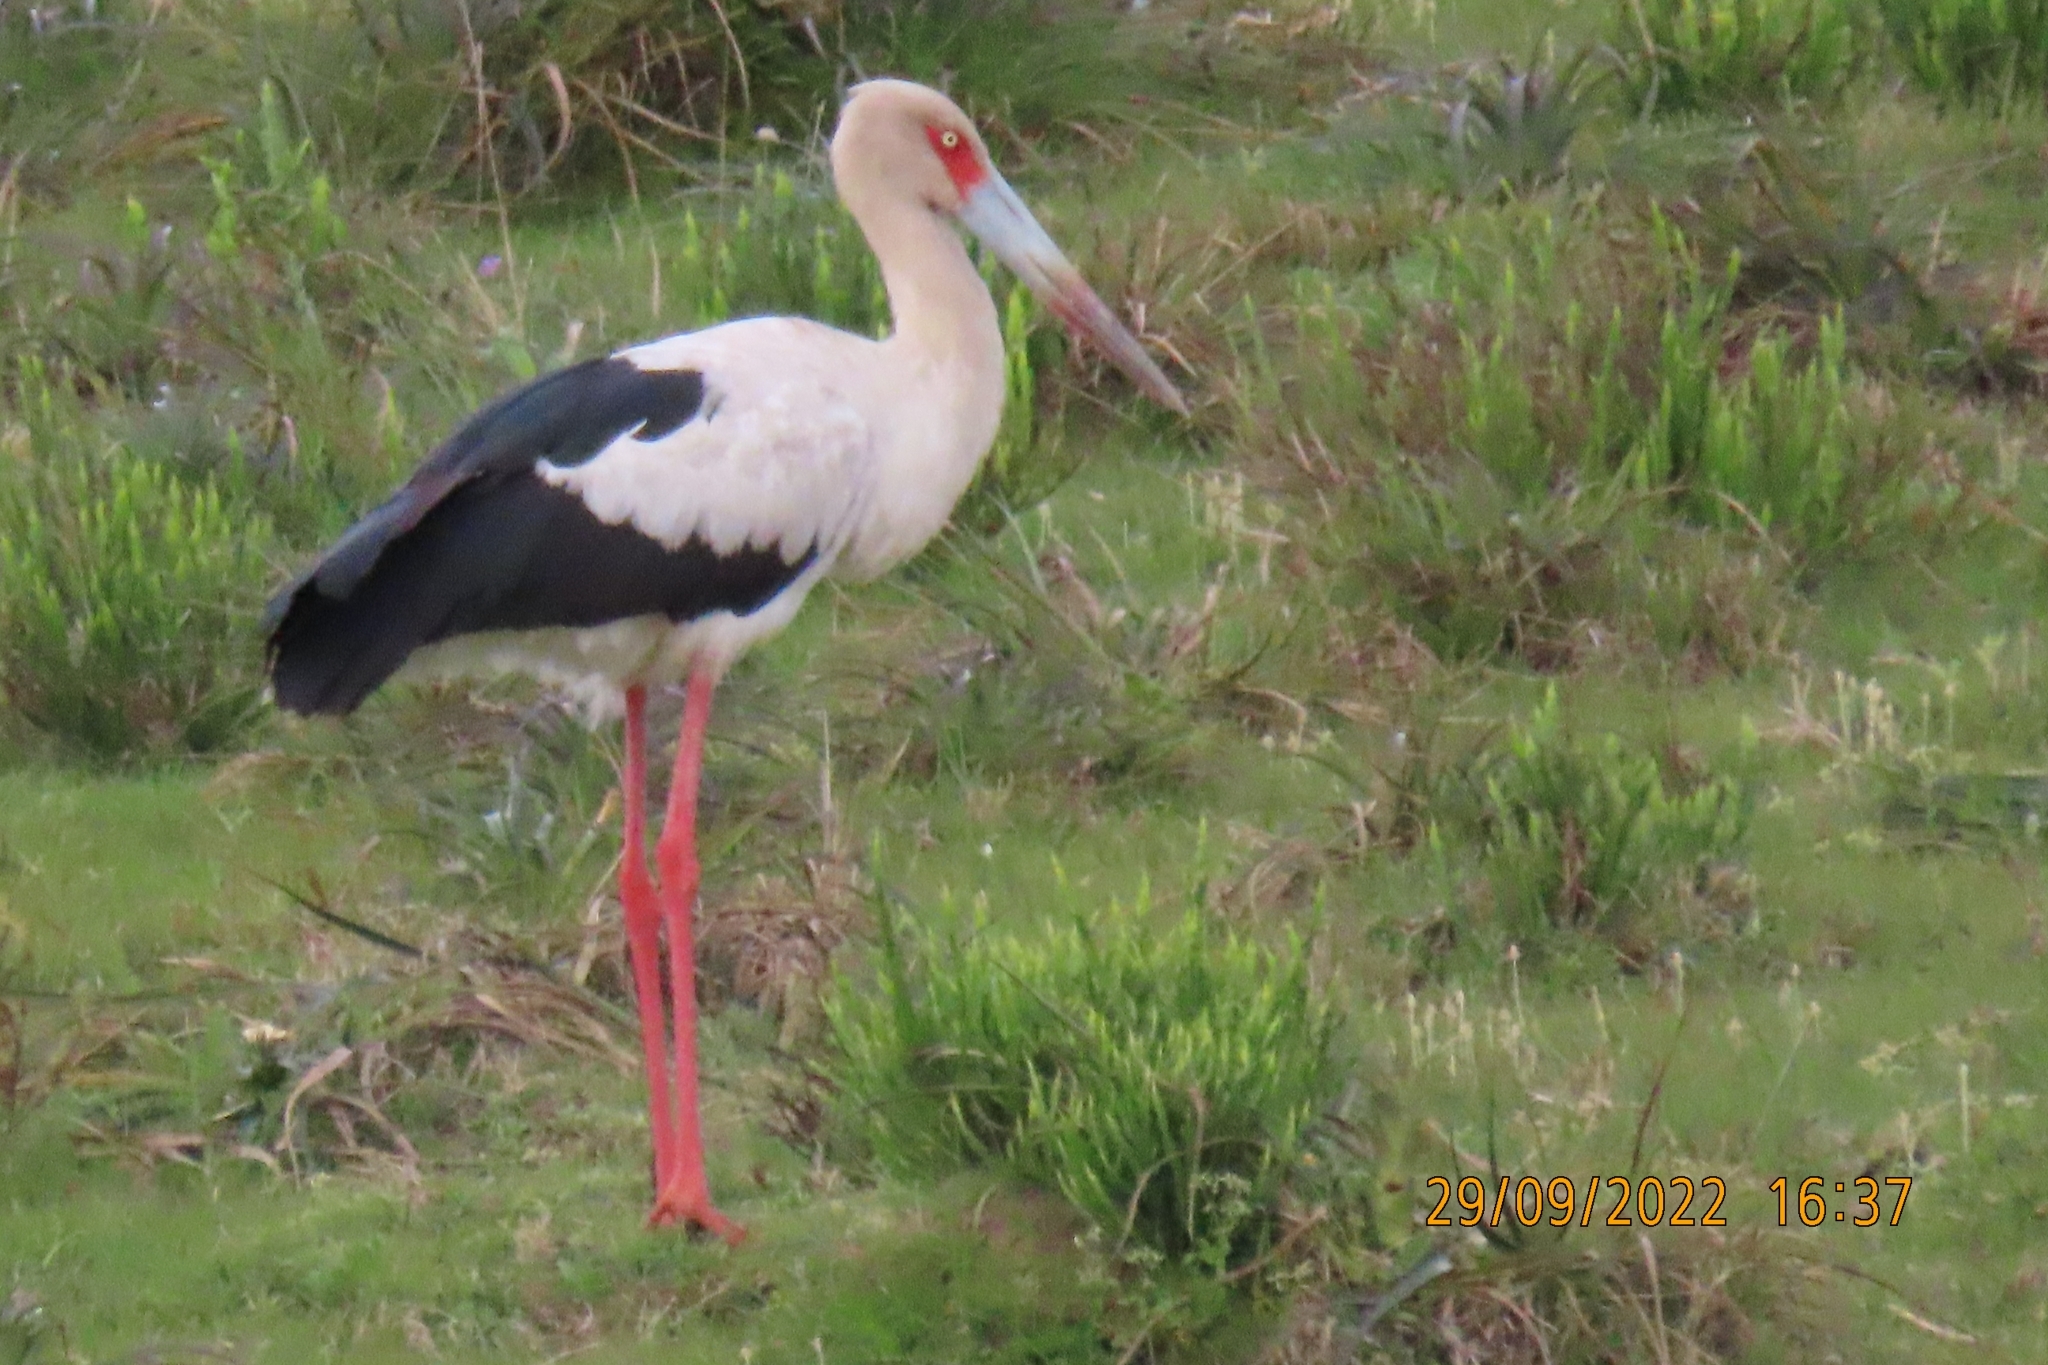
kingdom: Animalia
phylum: Chordata
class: Aves
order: Ciconiiformes
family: Ciconiidae
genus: Ciconia
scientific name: Ciconia maguari
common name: Maguari stork
